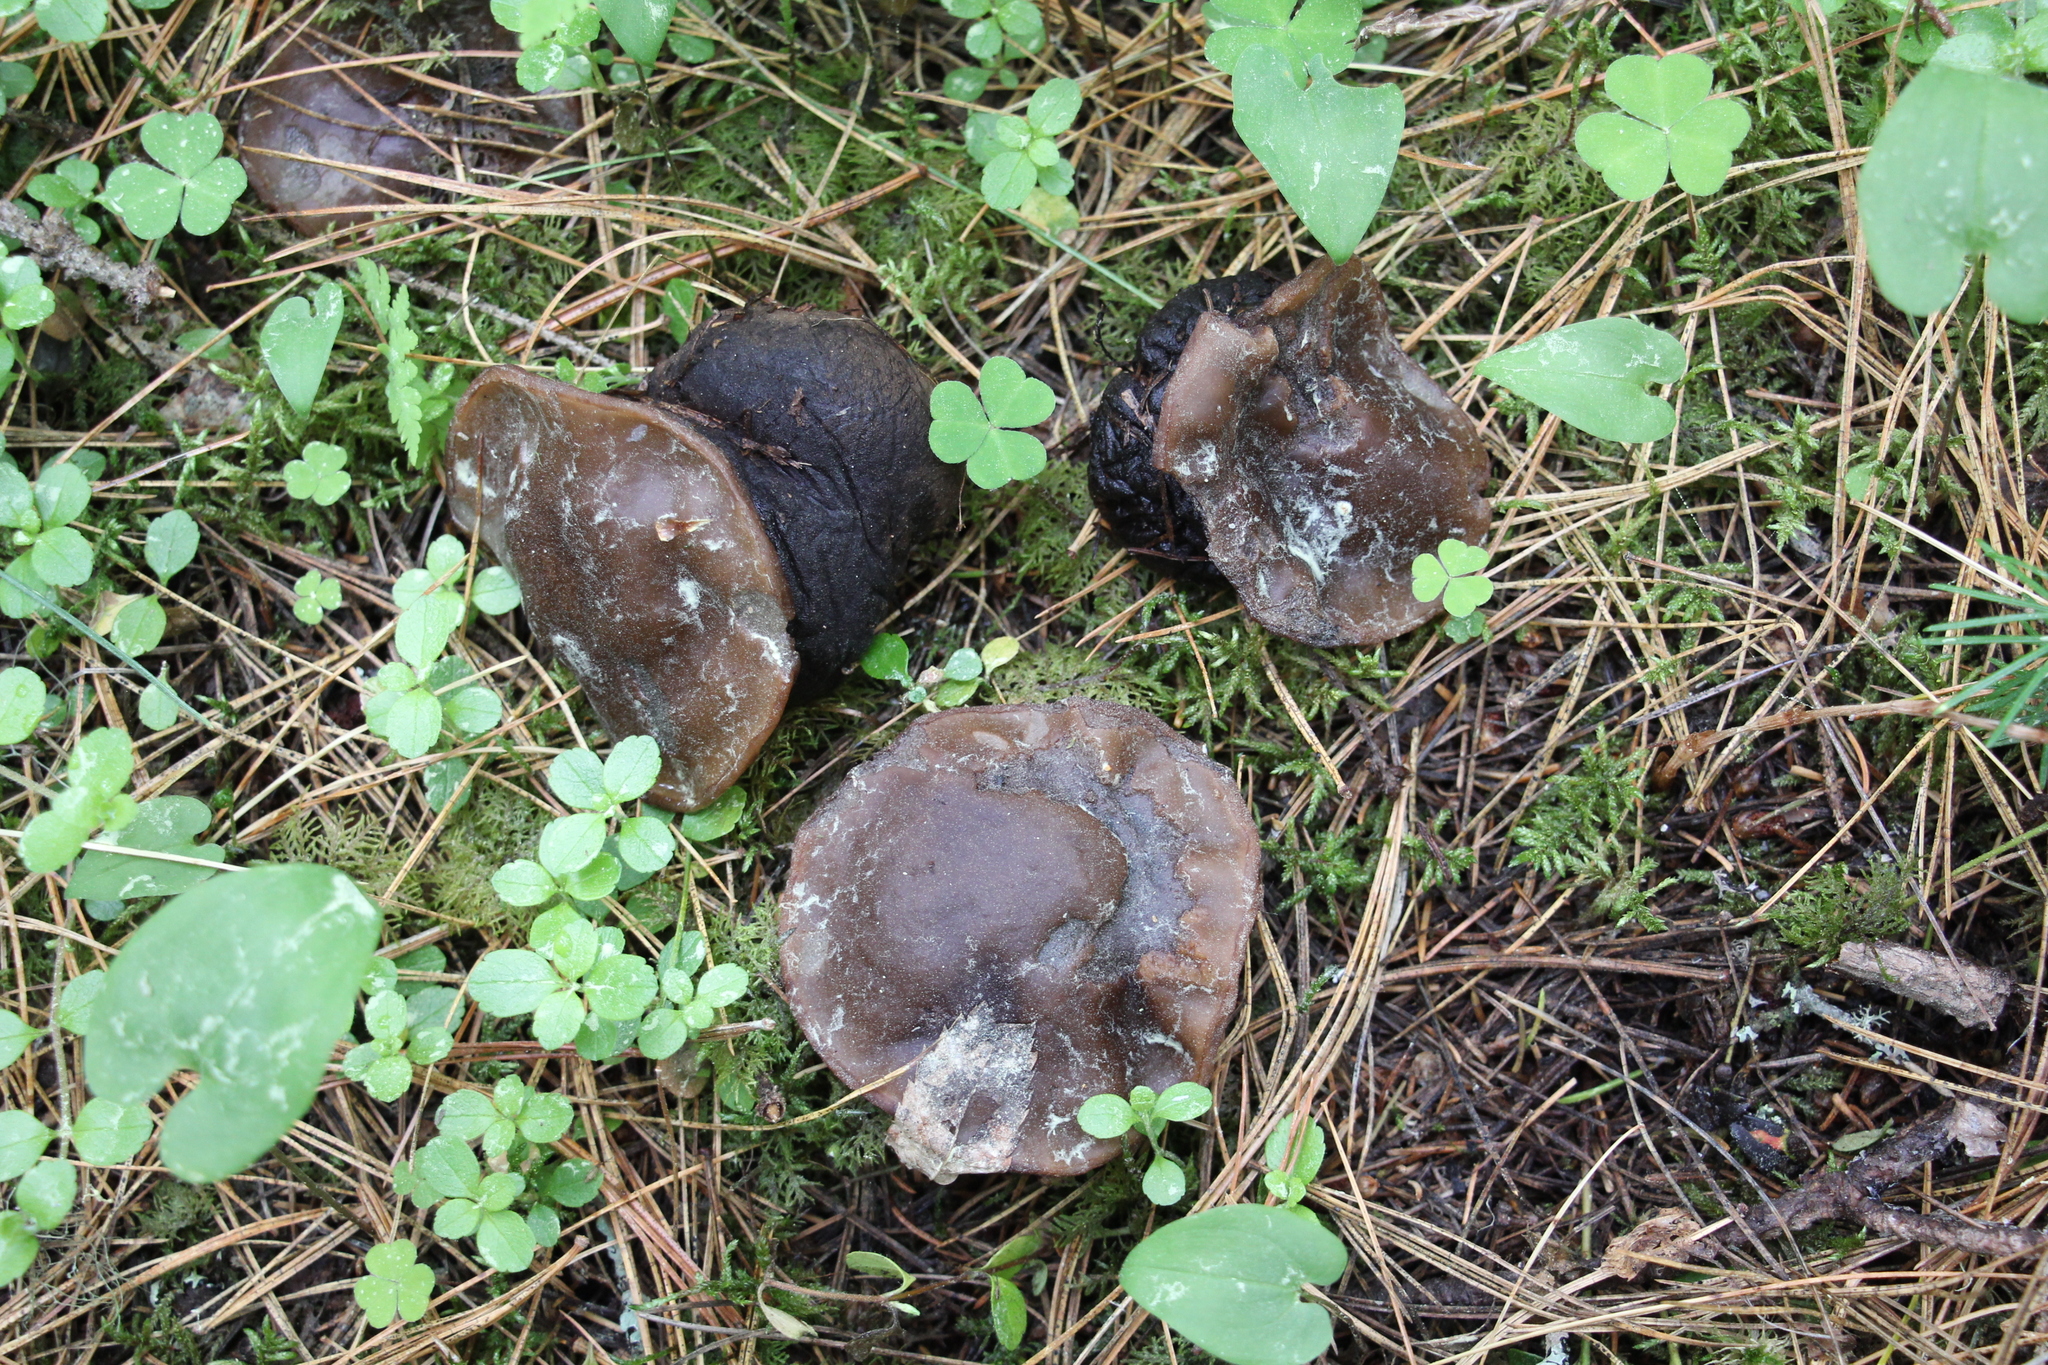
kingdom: Fungi
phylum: Ascomycota
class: Pezizomycetes
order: Pezizales
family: Sarcosomataceae
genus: Sarcosoma
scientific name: Sarcosoma globosum
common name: Charred-pancake cup
